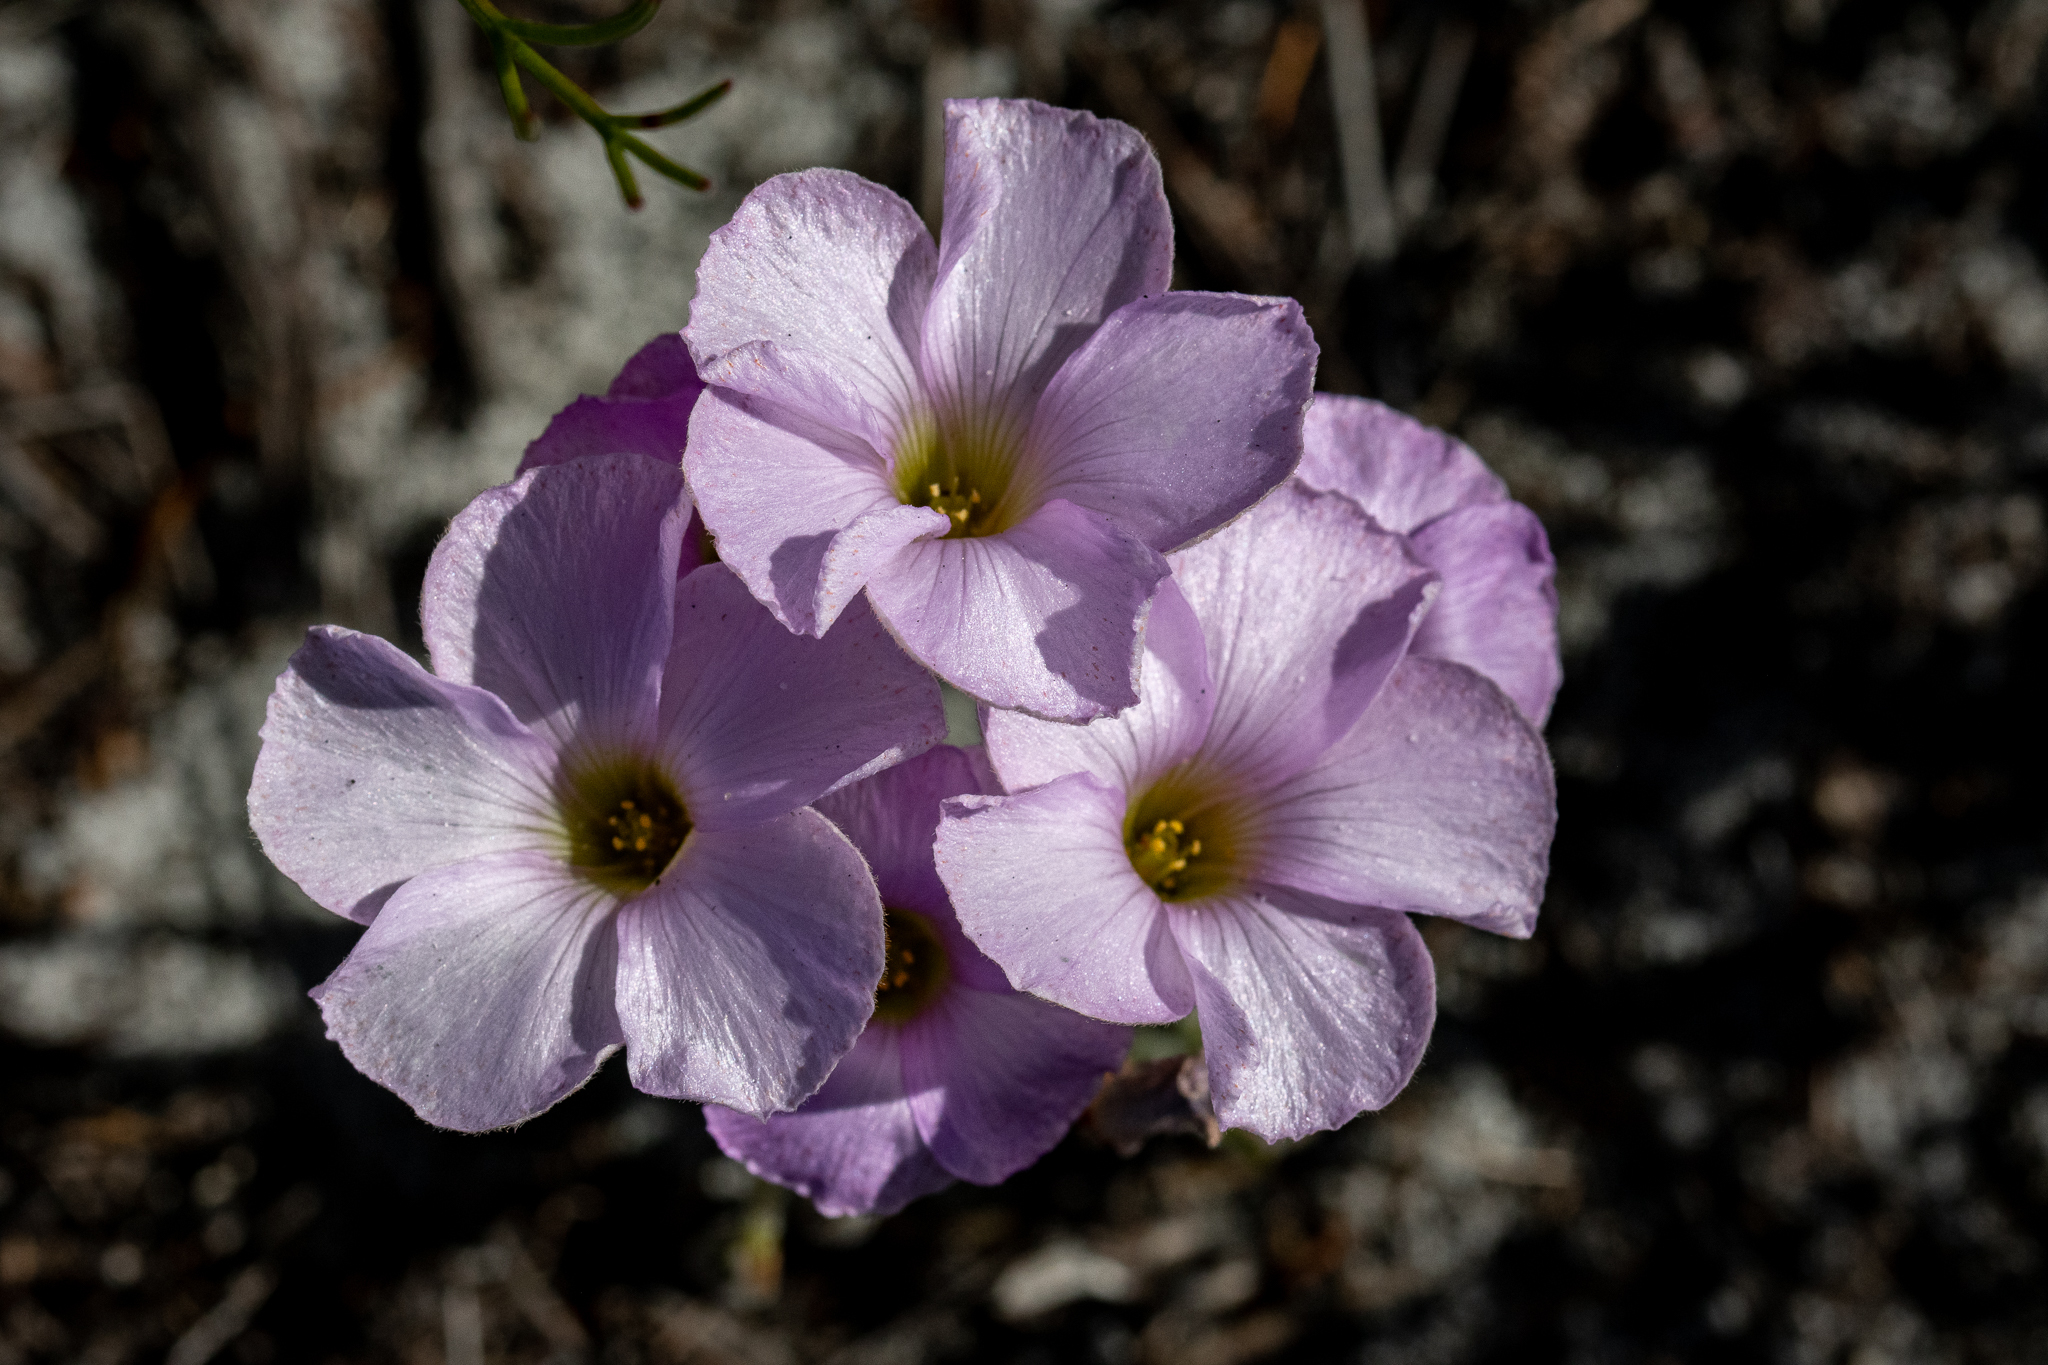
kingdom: Plantae
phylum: Tracheophyta
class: Magnoliopsida
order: Oxalidales
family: Oxalidaceae
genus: Oxalis
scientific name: Oxalis truncatula
